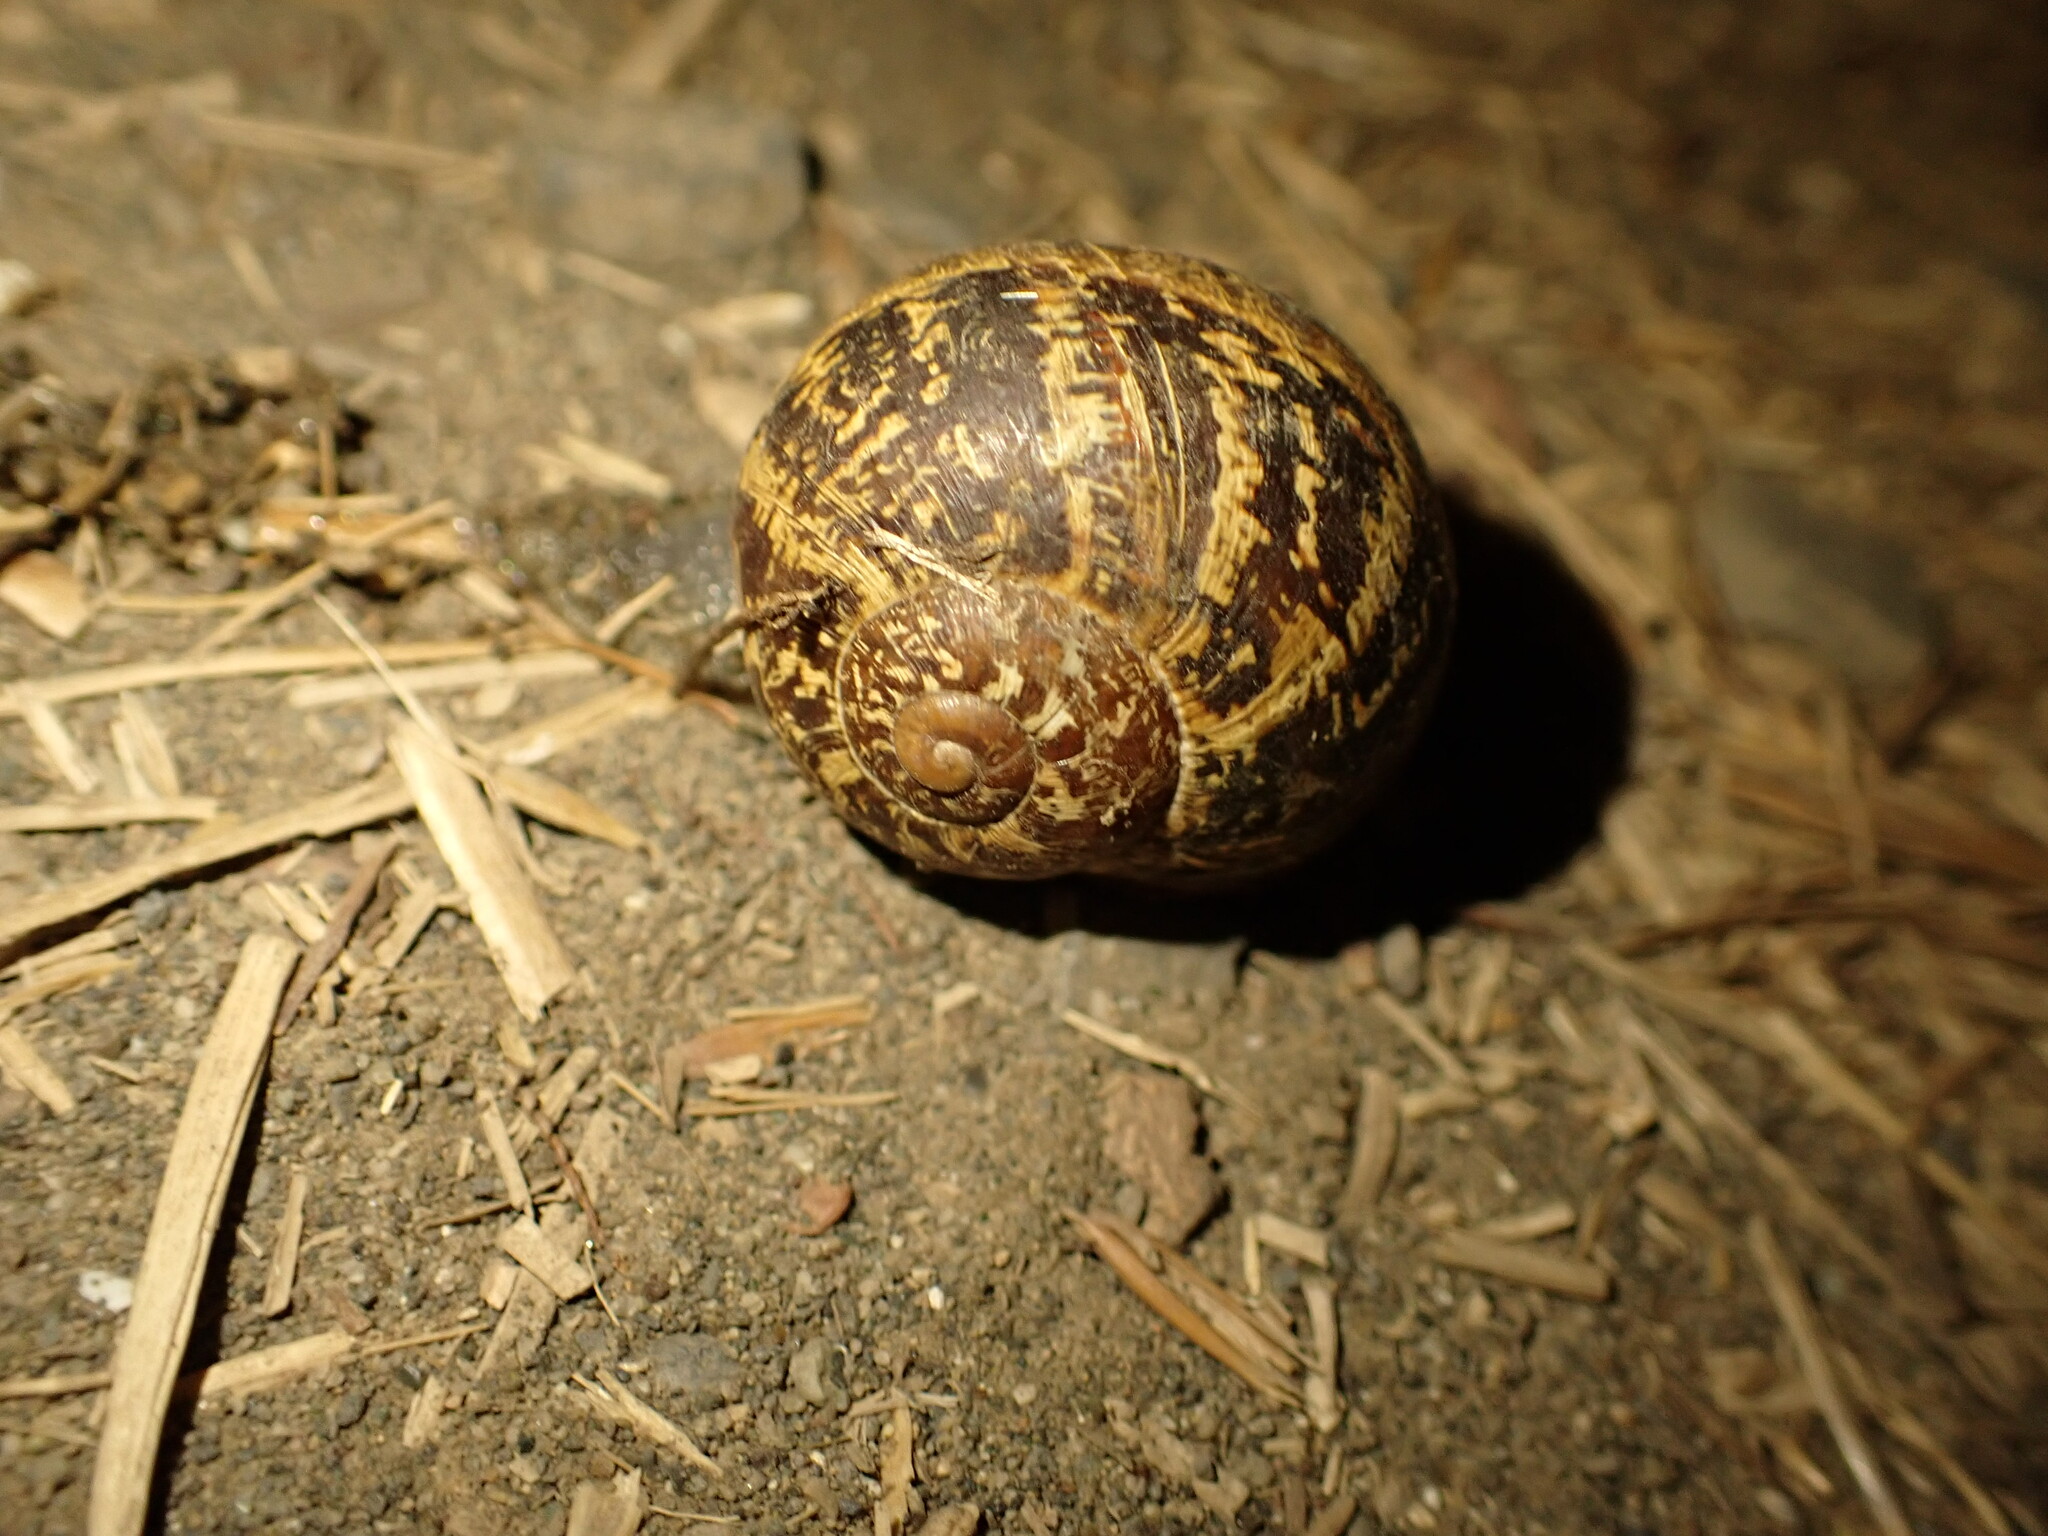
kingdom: Animalia
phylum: Mollusca
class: Gastropoda
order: Stylommatophora
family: Helicidae
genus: Cornu
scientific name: Cornu aspersum
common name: Brown garden snail
